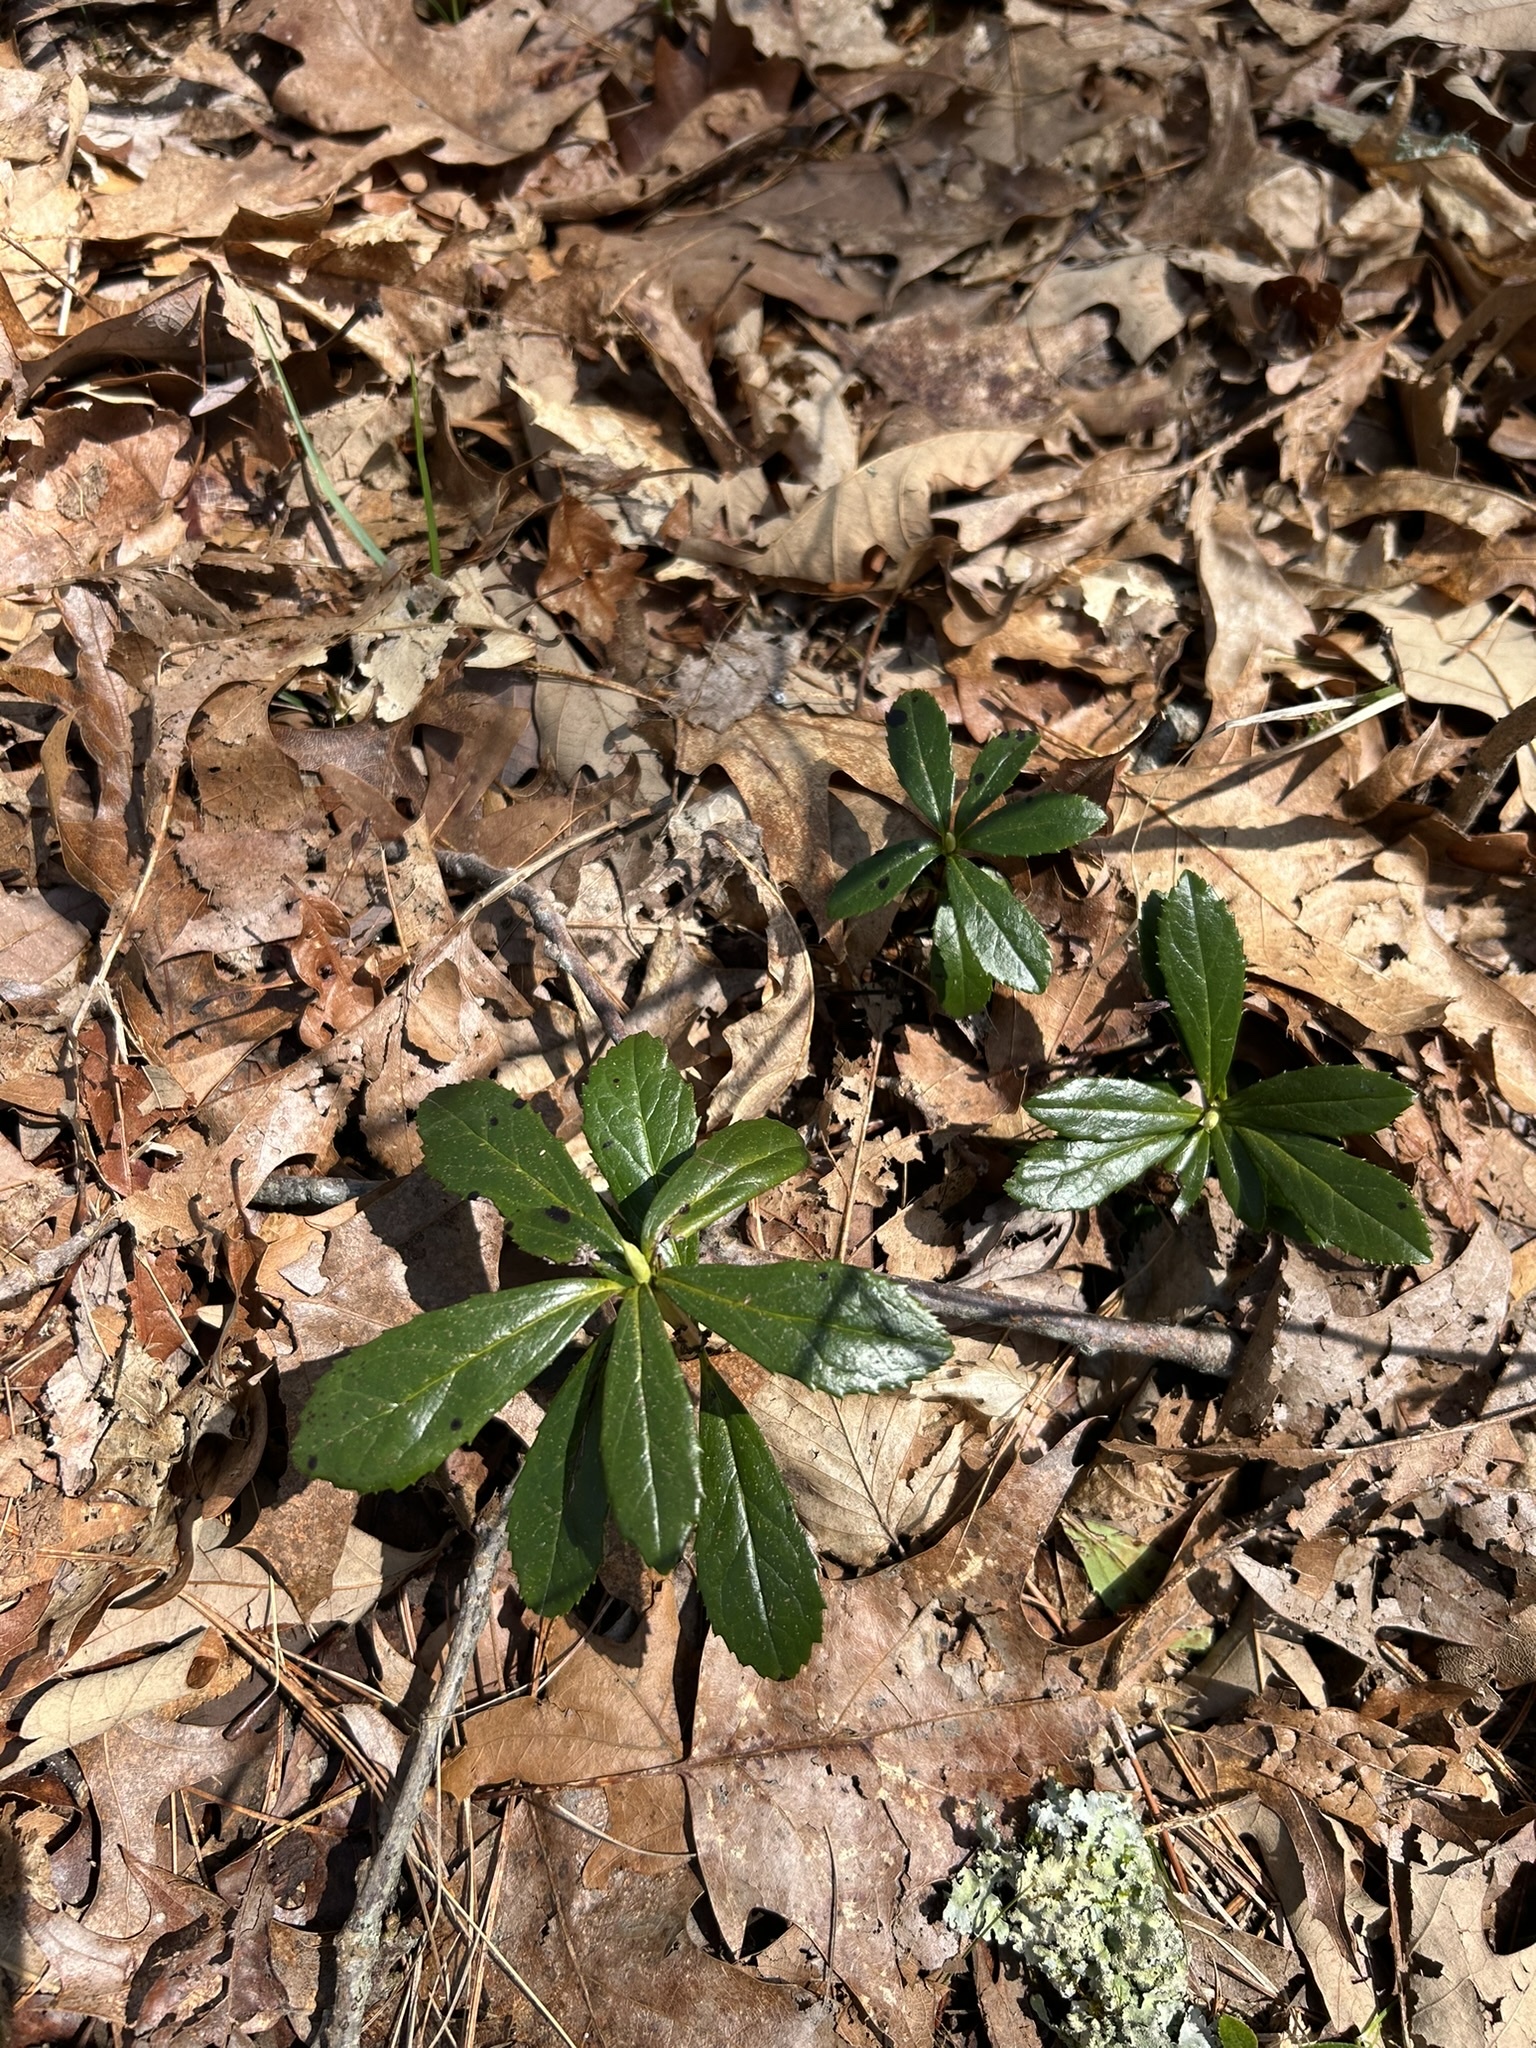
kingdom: Plantae
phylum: Tracheophyta
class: Magnoliopsida
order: Ericales
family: Ericaceae
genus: Chimaphila
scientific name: Chimaphila umbellata
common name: Pipsissewa
